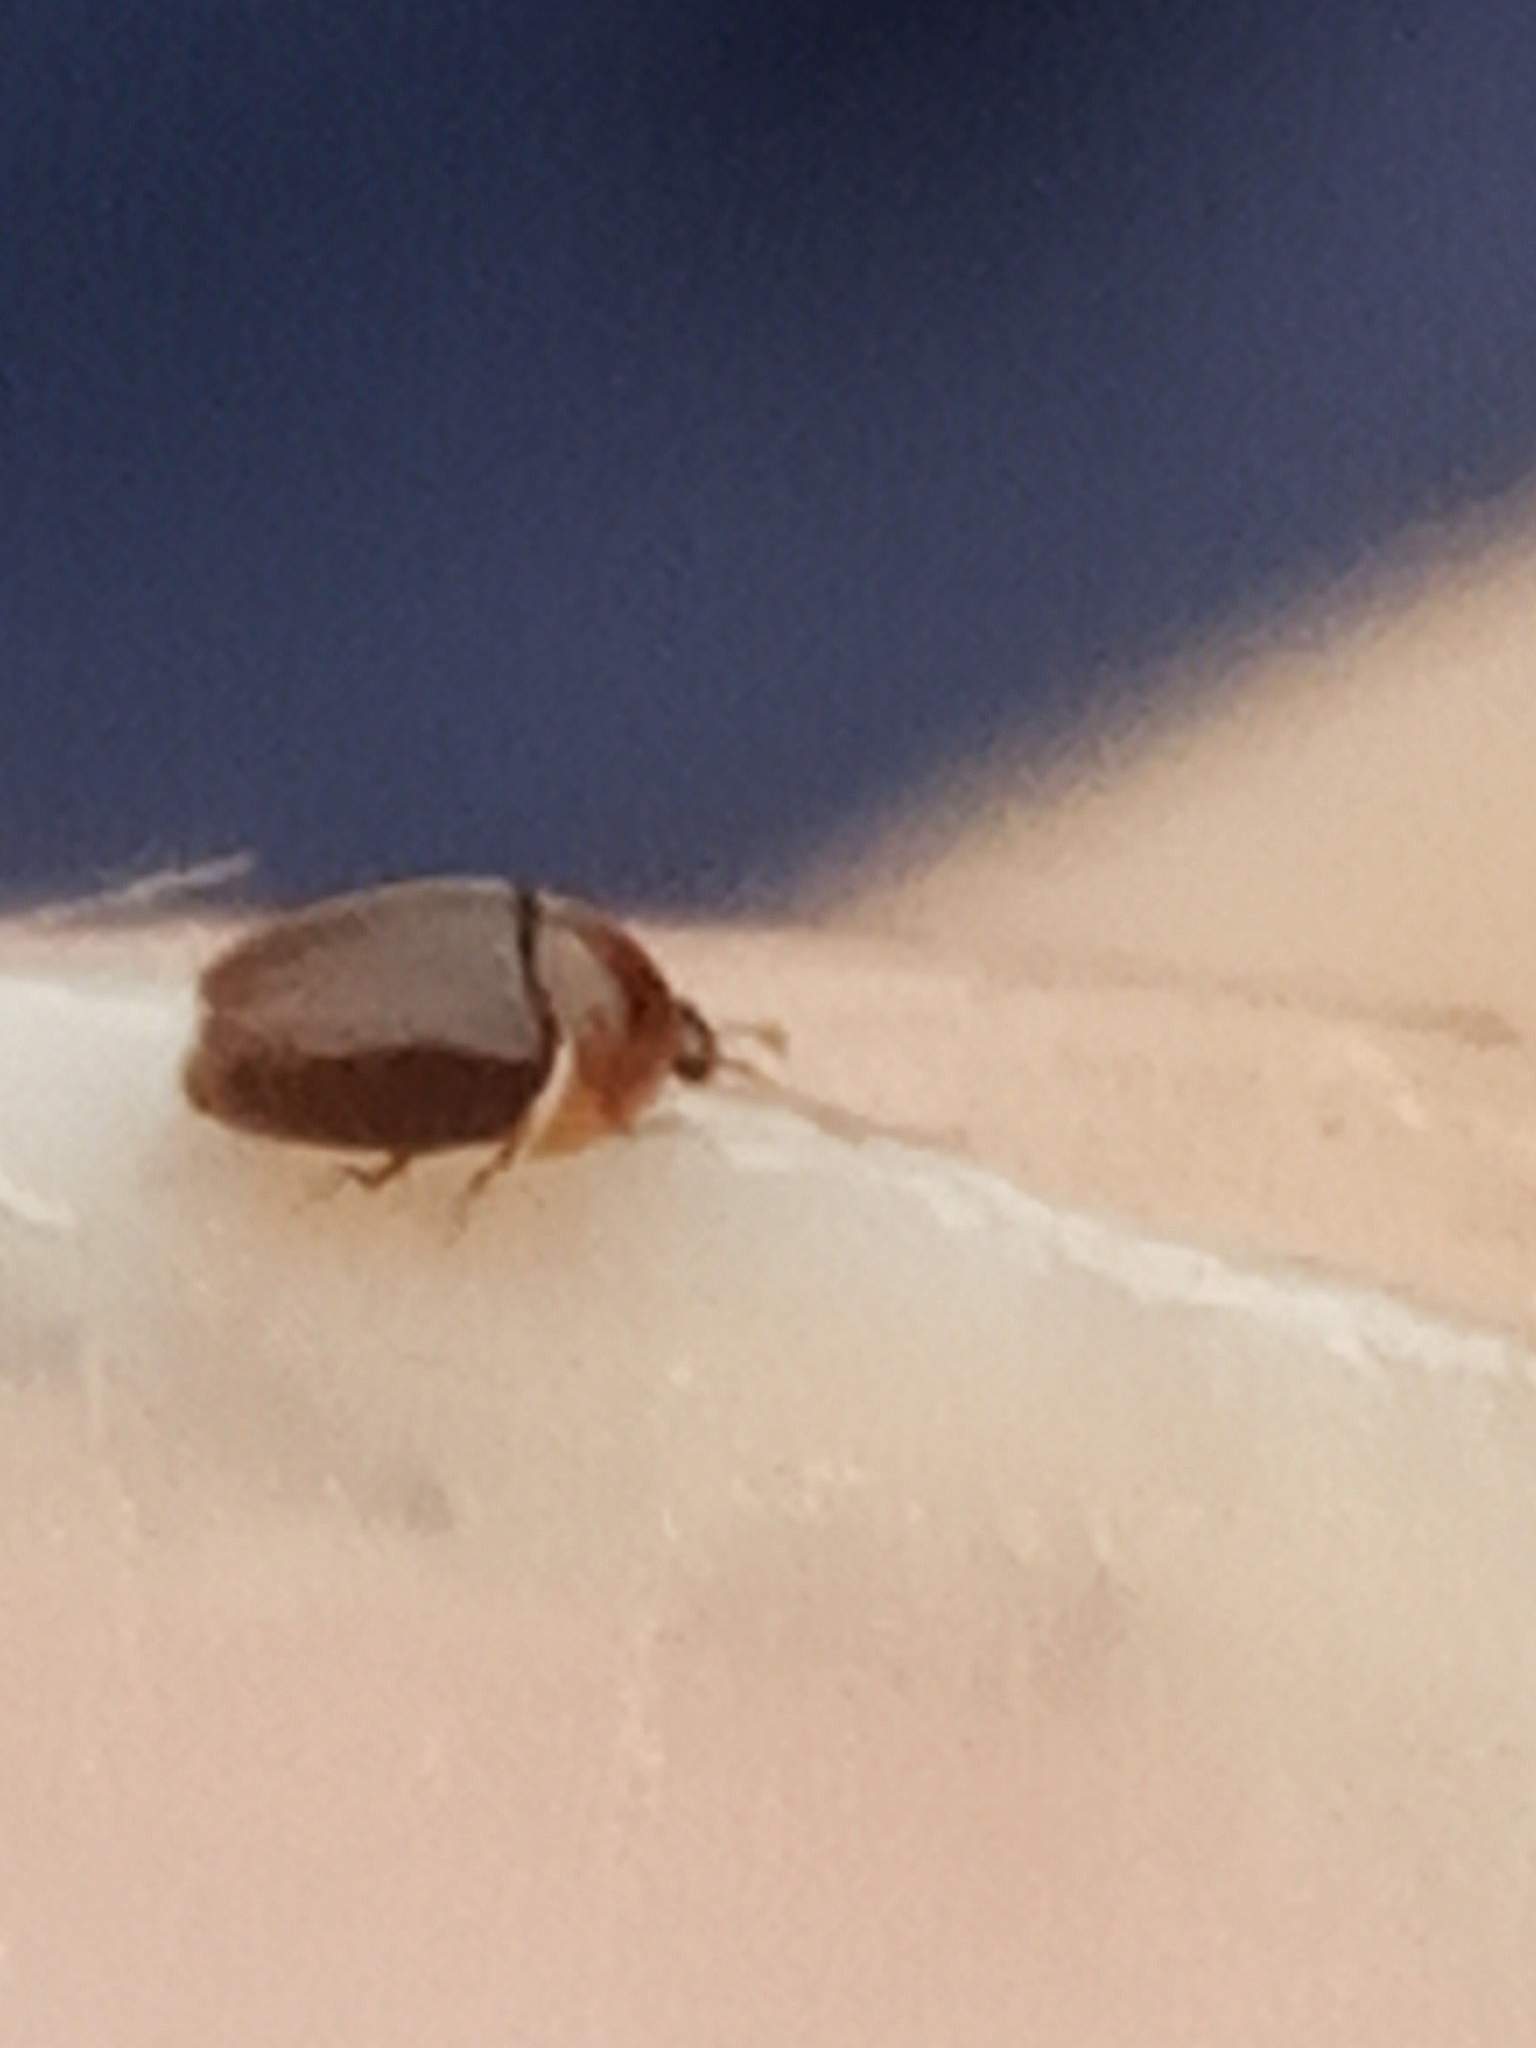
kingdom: Animalia
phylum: Arthropoda
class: Insecta
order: Coleoptera
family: Corylophidae
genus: Sericoderus
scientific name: Sericoderus lateralis
